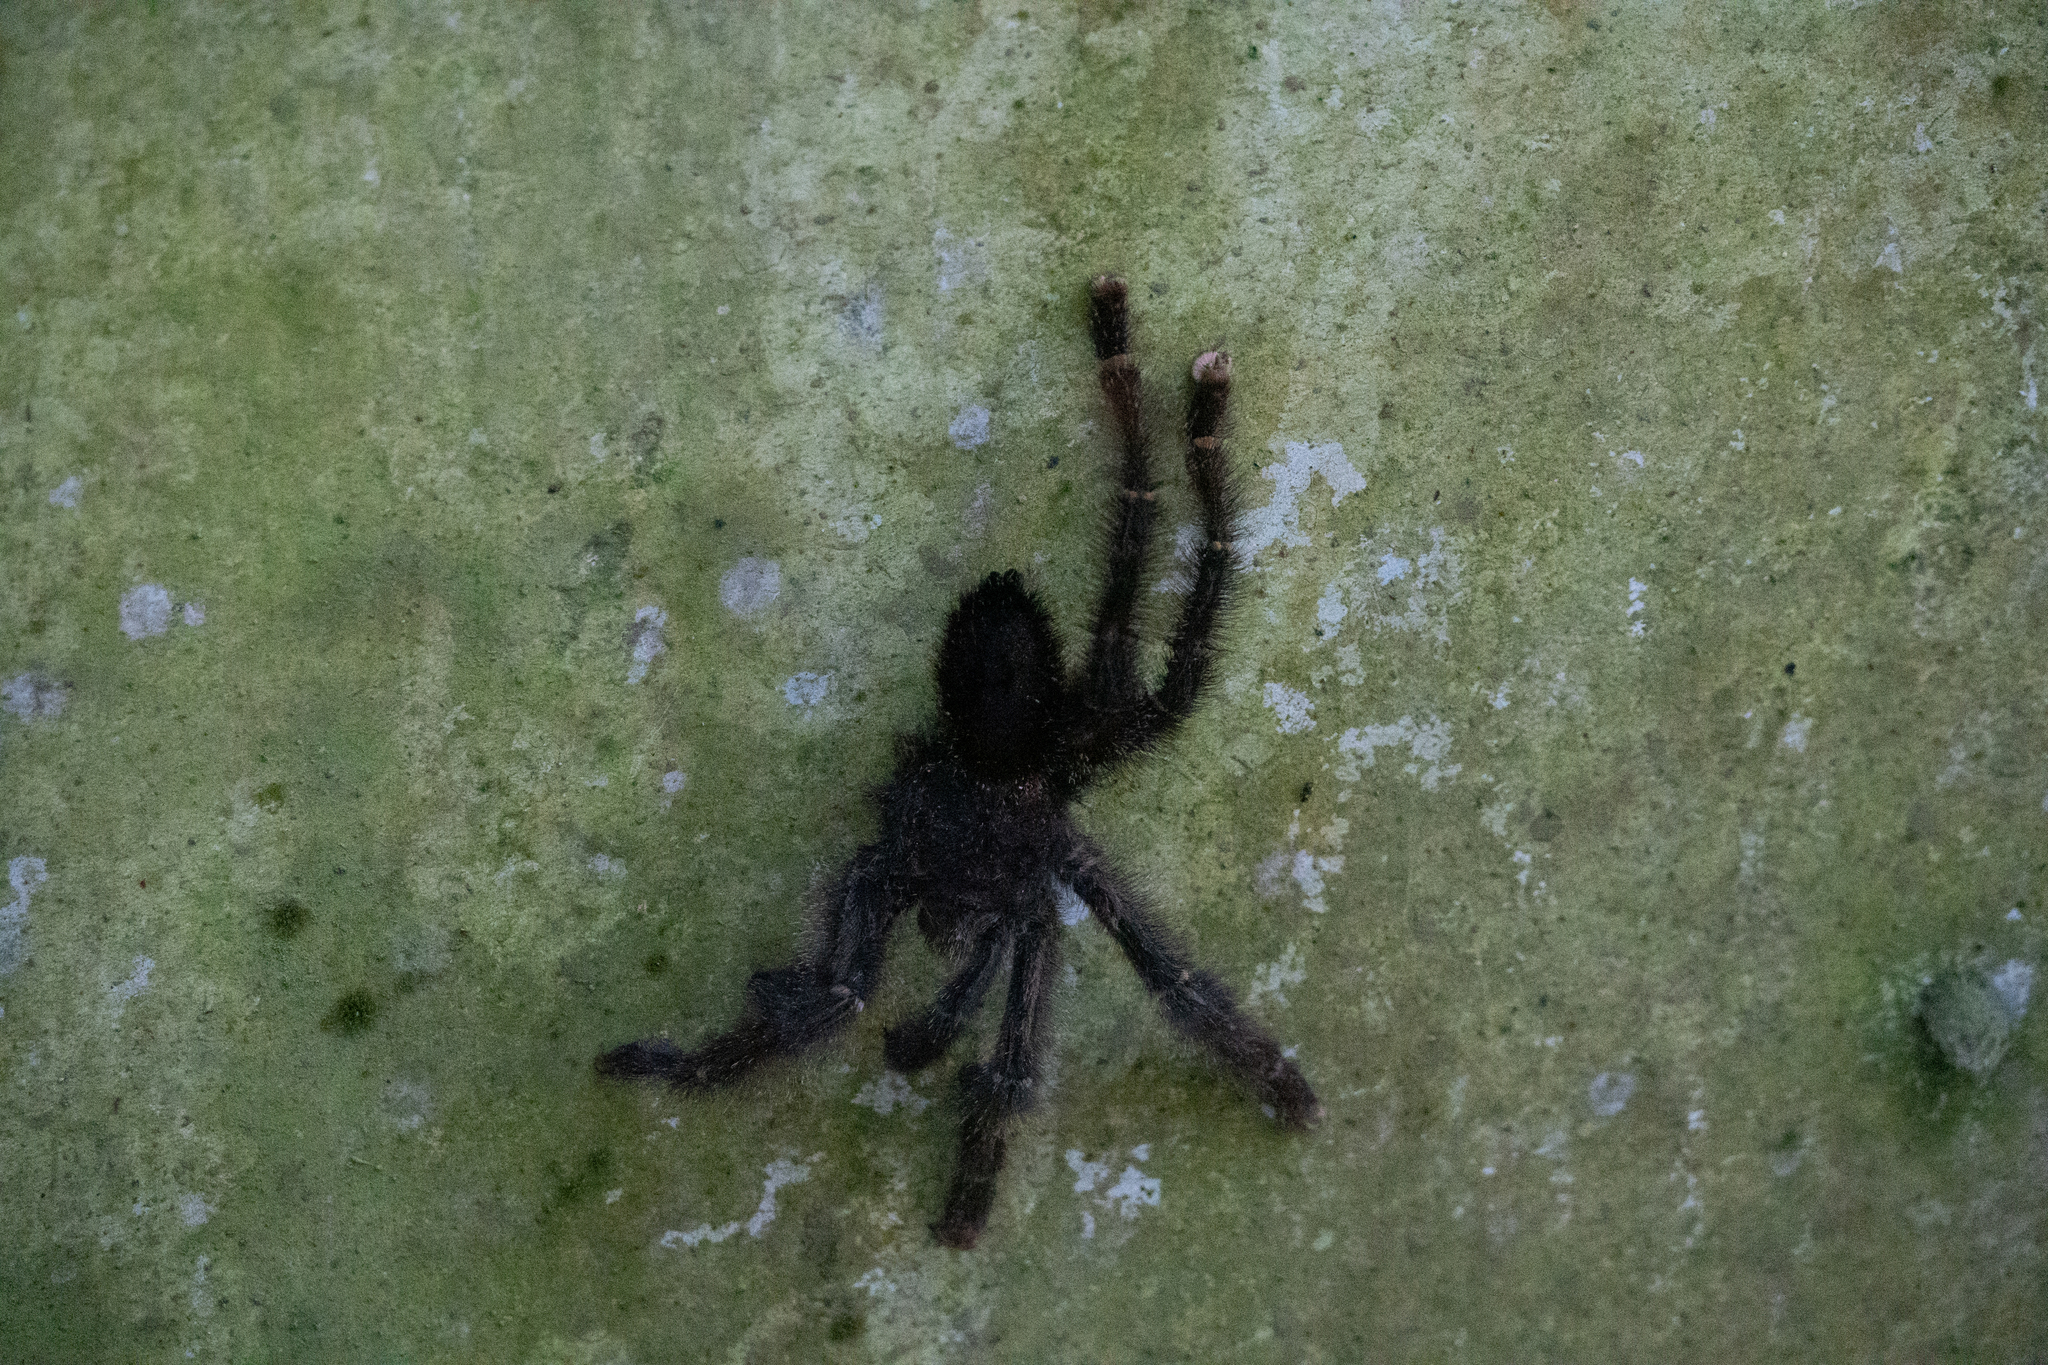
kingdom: Animalia
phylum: Arthropoda
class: Arachnida
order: Araneae
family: Theraphosidae
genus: Avicularia
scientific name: Avicularia juruensis
